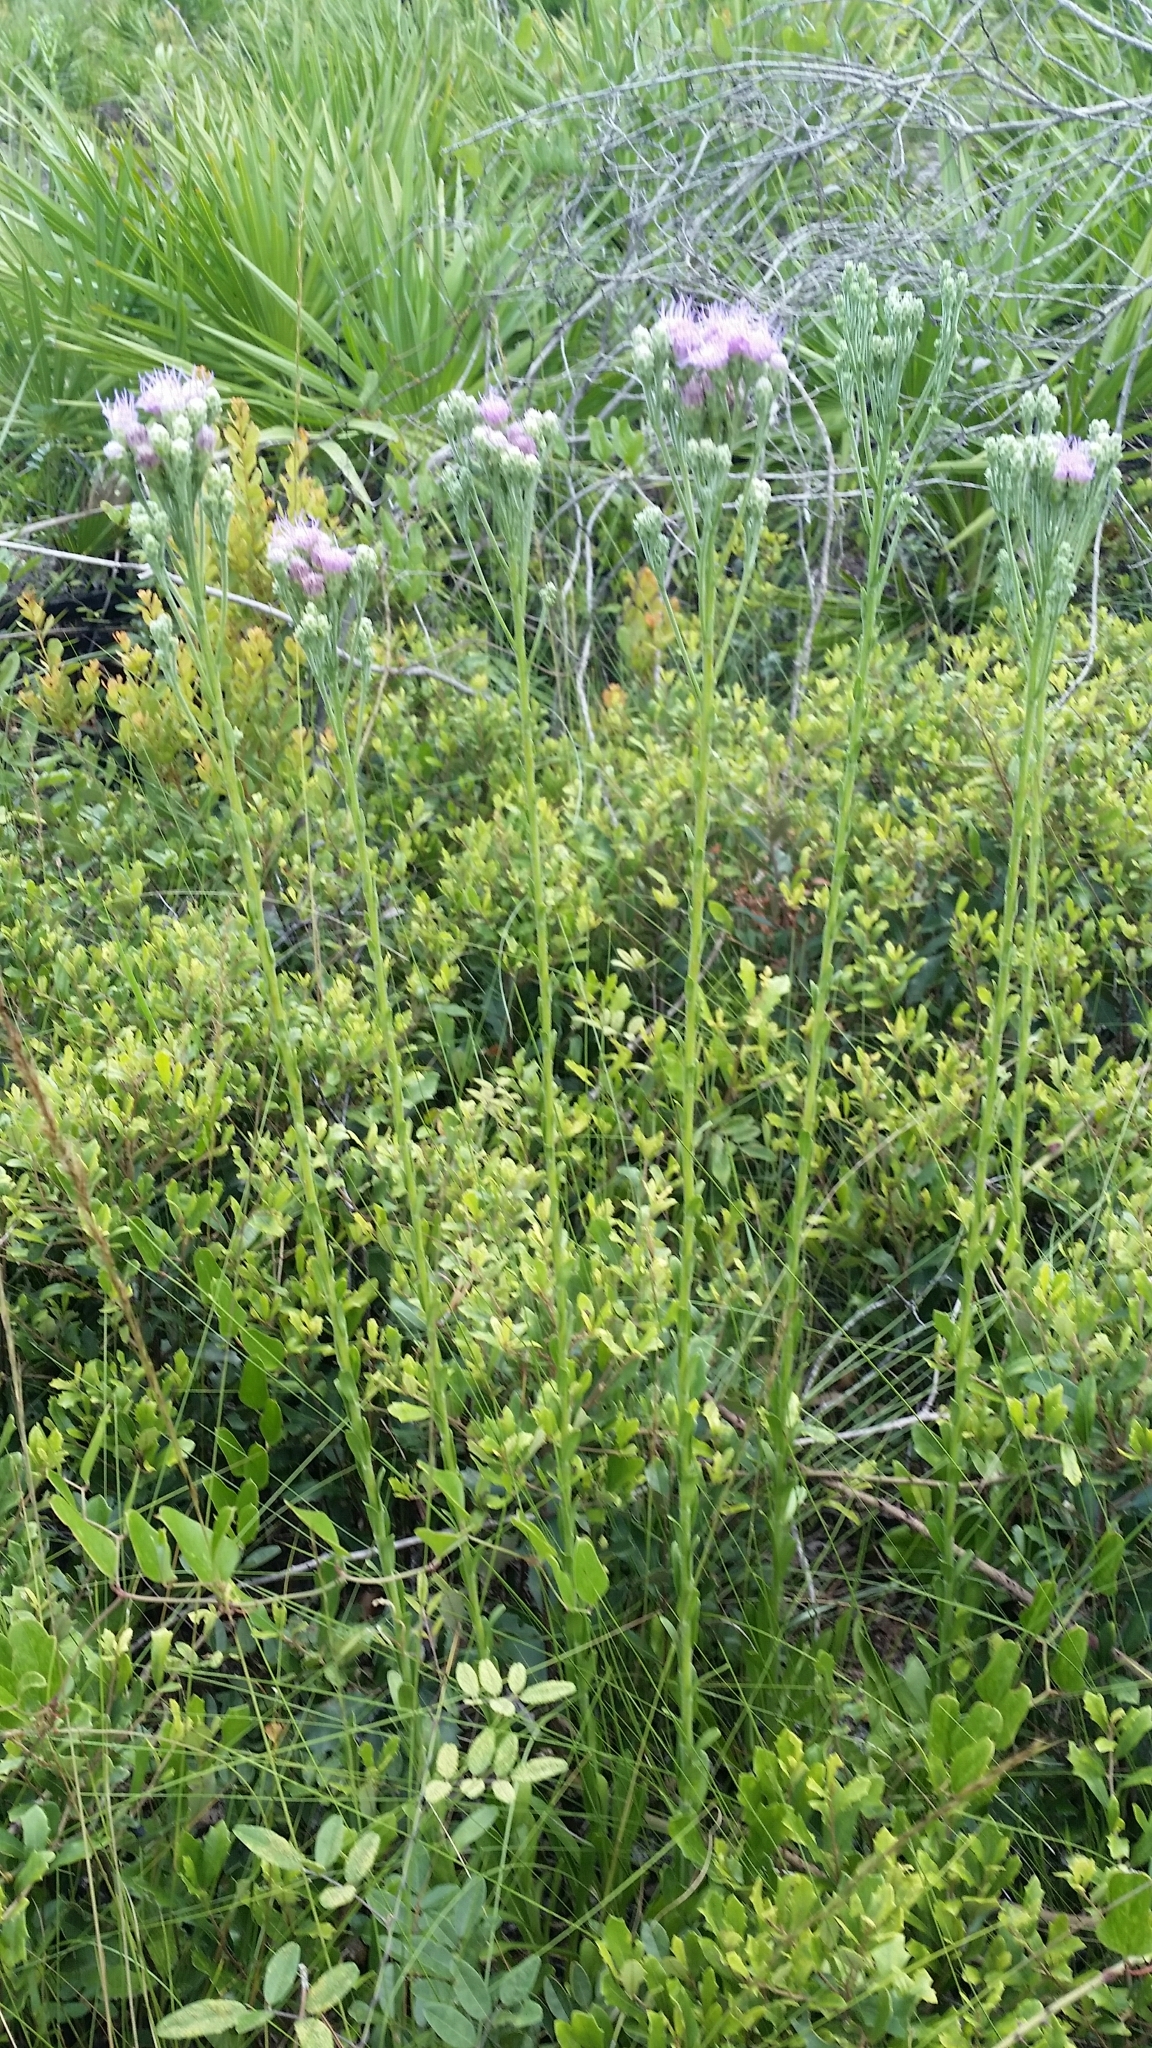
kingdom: Plantae
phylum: Tracheophyta
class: Magnoliopsida
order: Asterales
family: Asteraceae
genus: Carphephorus
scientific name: Carphephorus corymbosus
